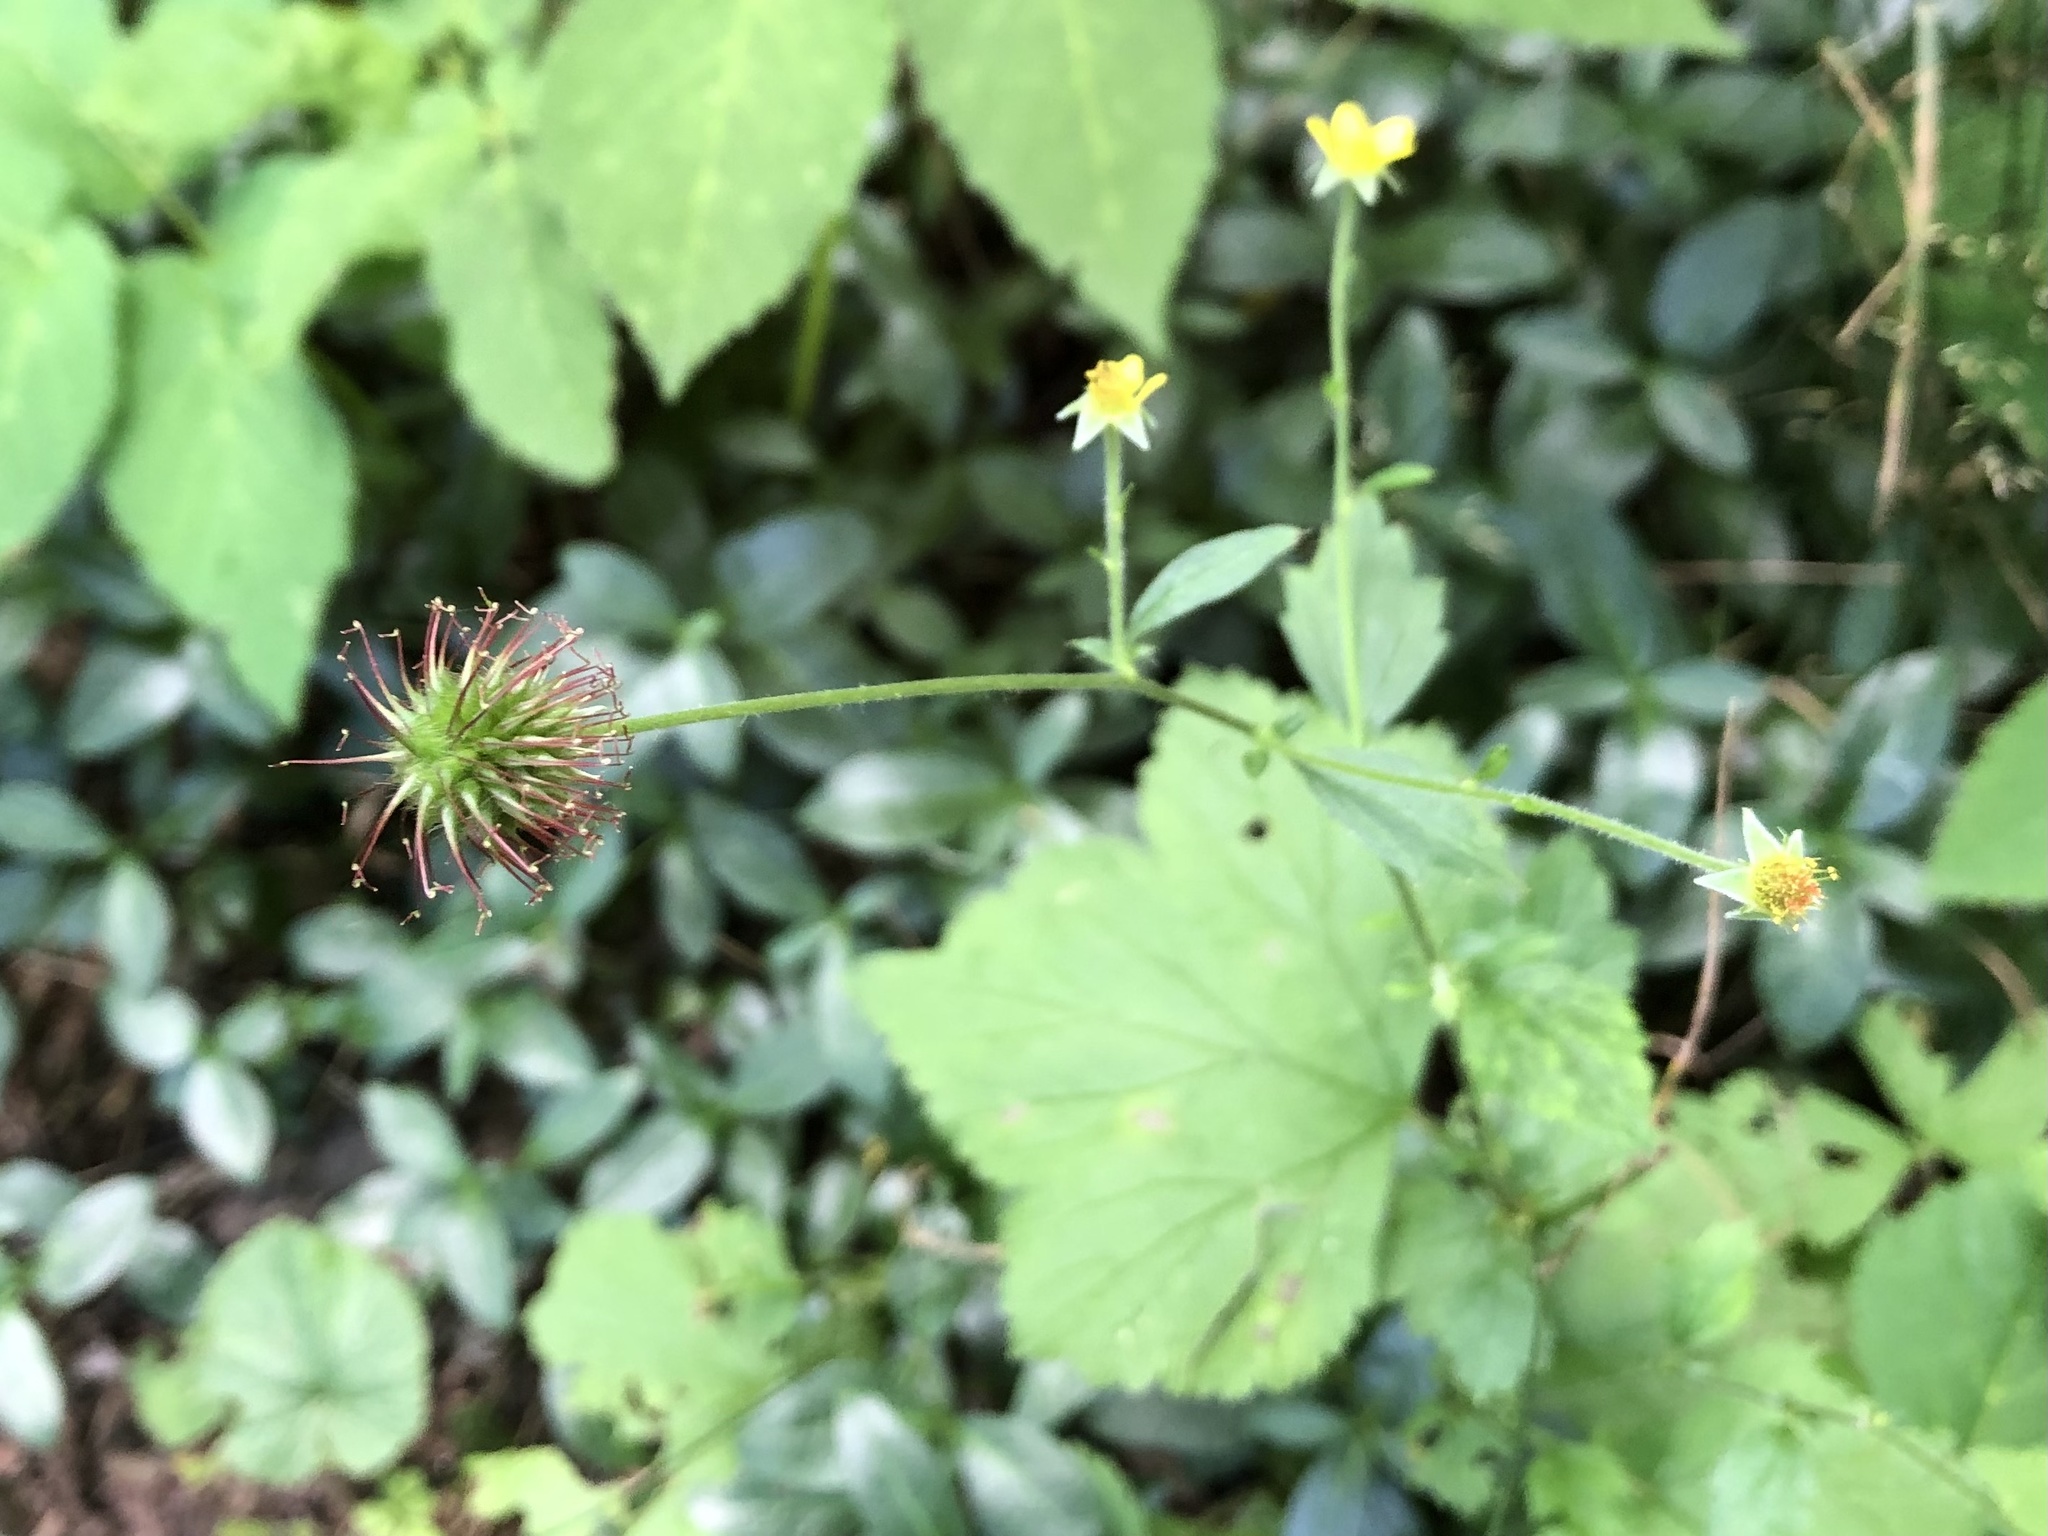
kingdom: Plantae
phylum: Tracheophyta
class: Magnoliopsida
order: Rosales
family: Rosaceae
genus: Geum
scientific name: Geum urbanum
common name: Wood avens
